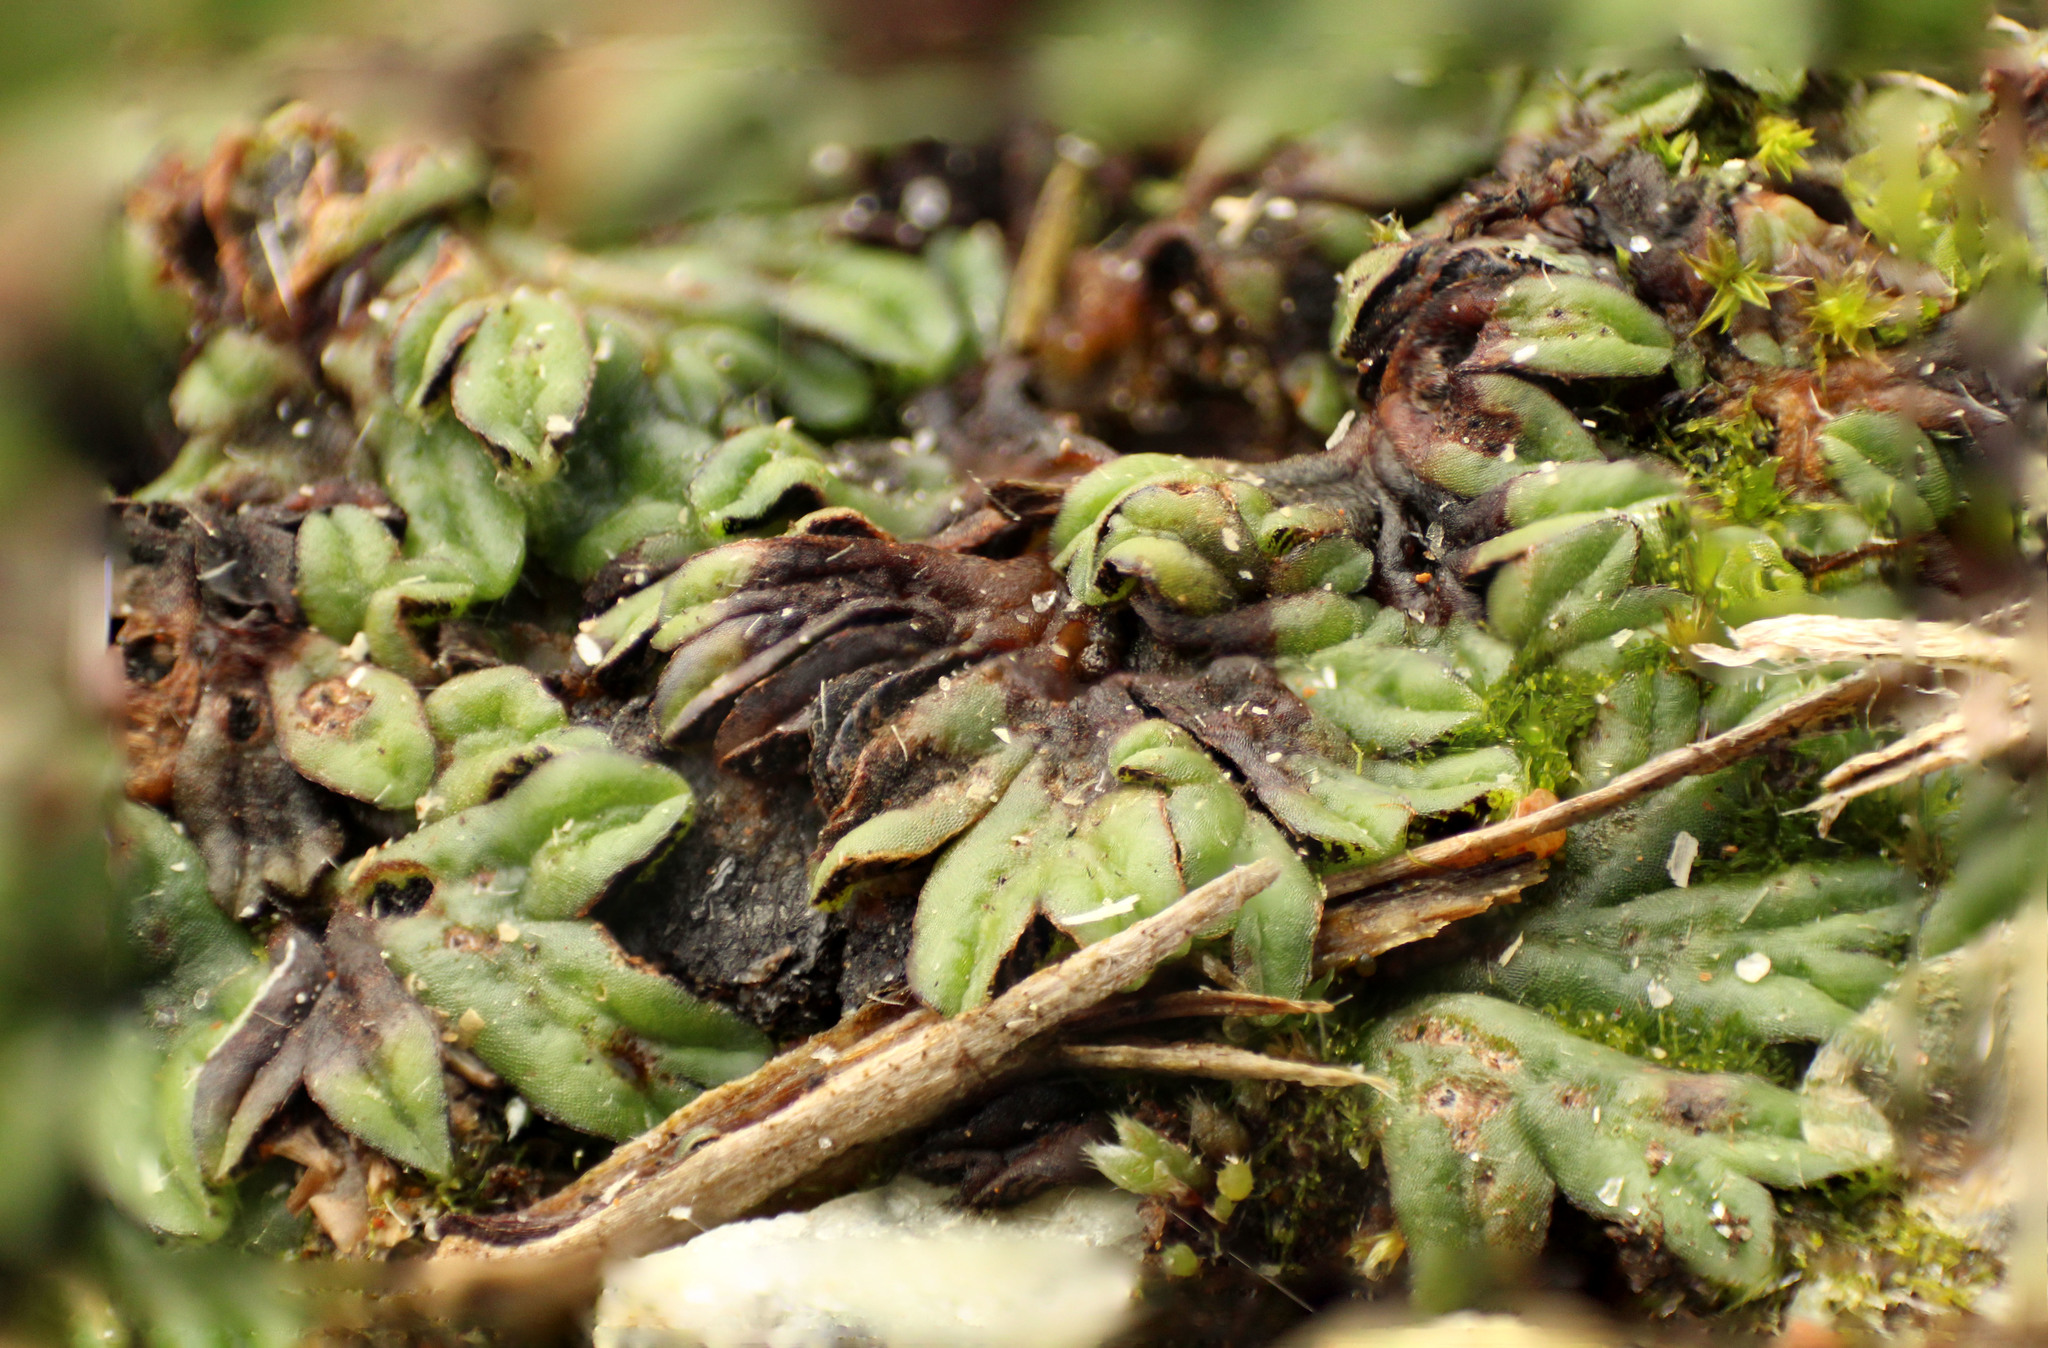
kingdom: Plantae
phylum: Marchantiophyta
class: Marchantiopsida
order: Marchantiales
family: Ricciaceae
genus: Riccia
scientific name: Riccia nigrella
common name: Black crystalwort
